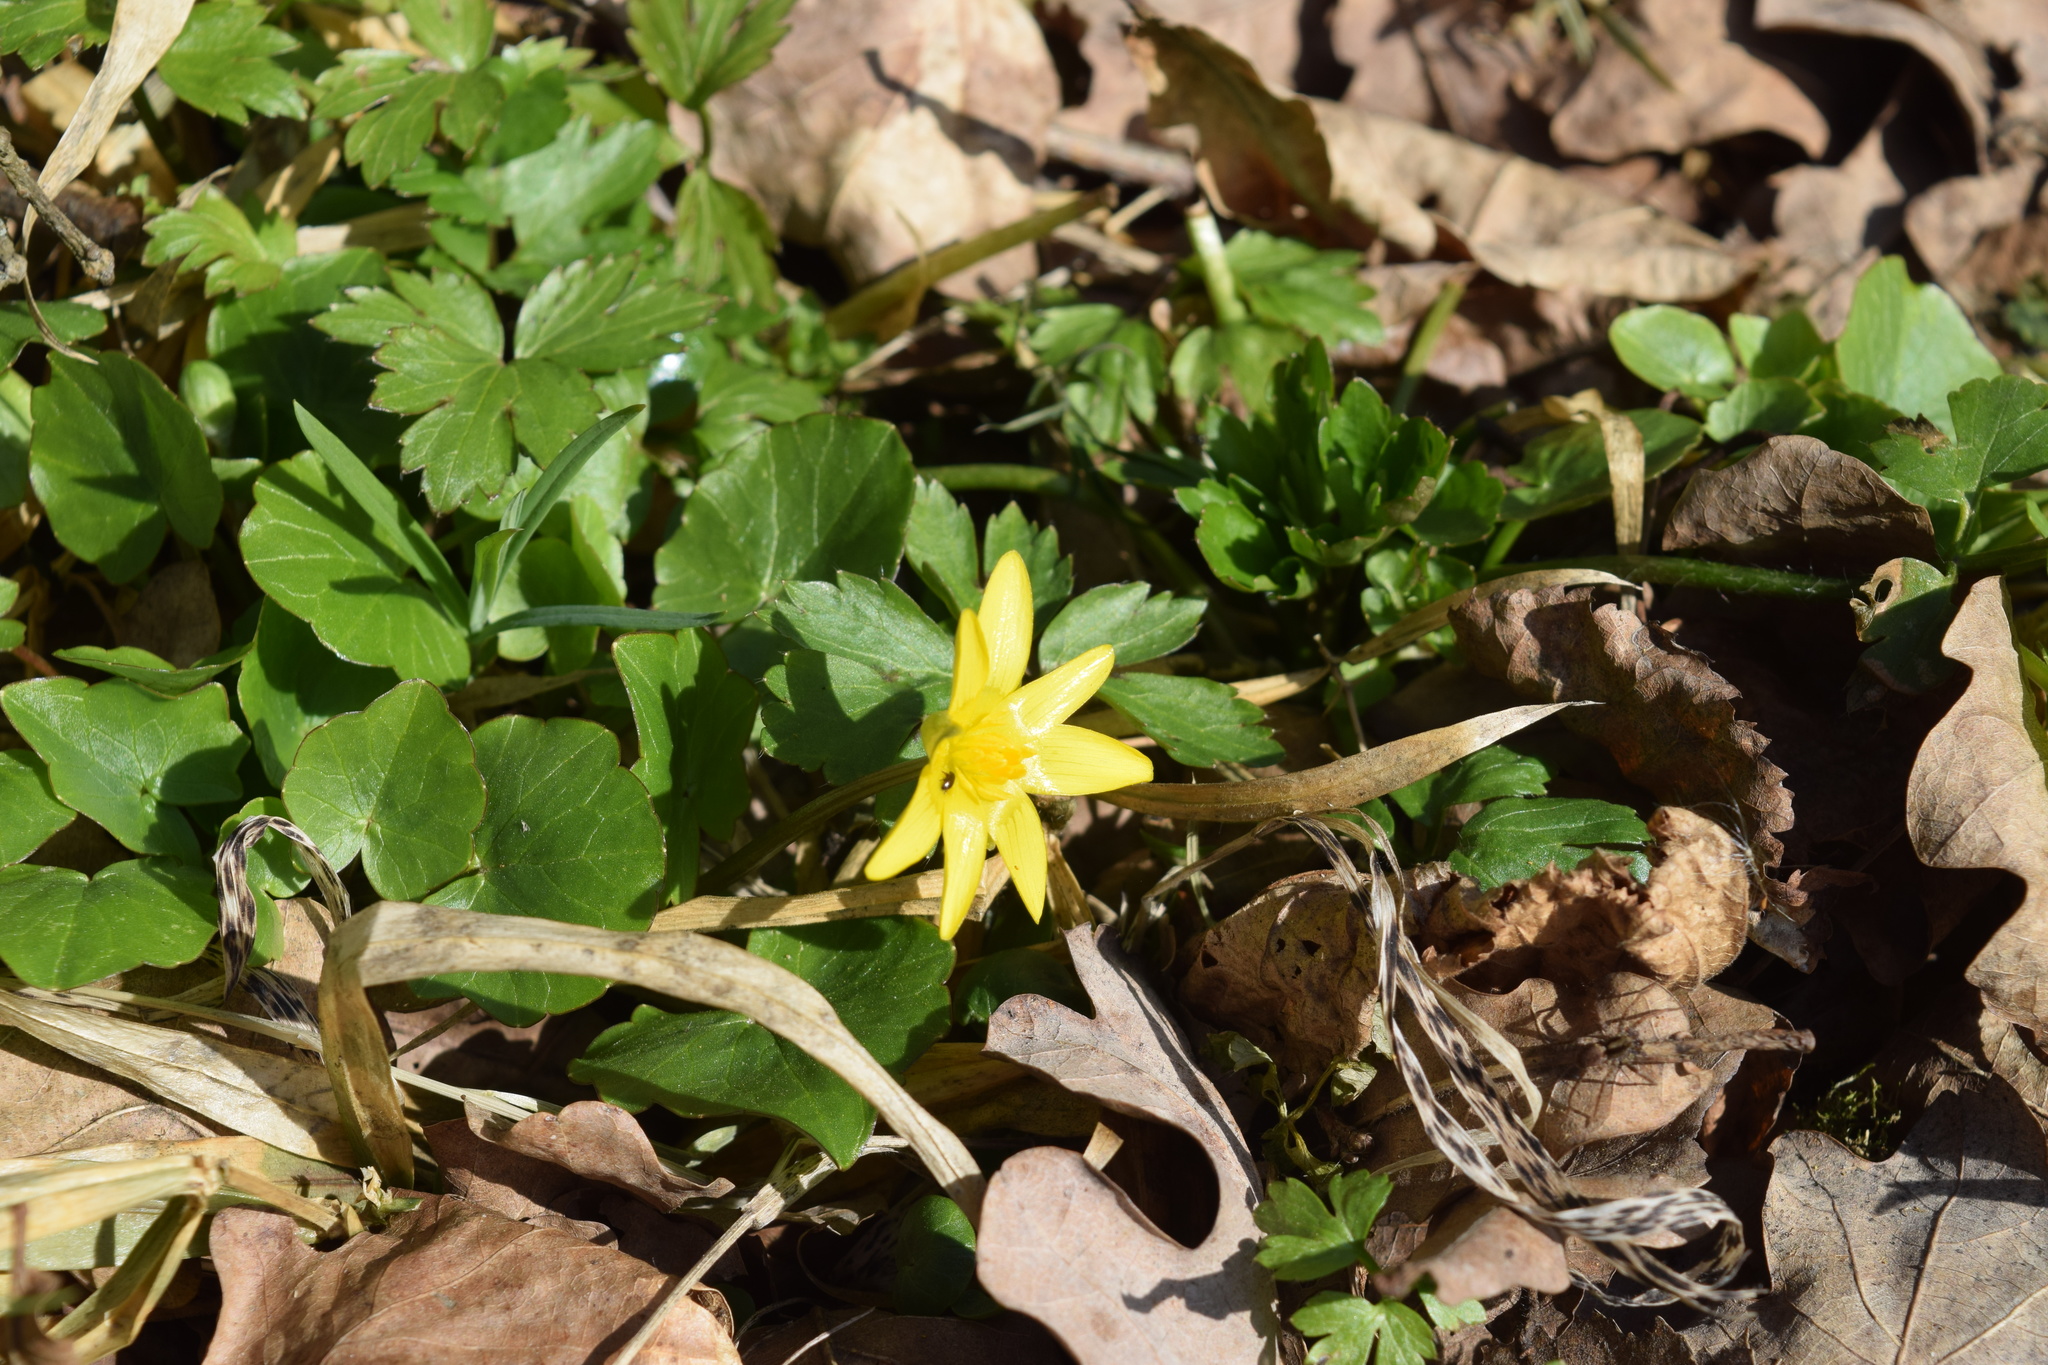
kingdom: Plantae
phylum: Tracheophyta
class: Magnoliopsida
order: Ranunculales
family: Ranunculaceae
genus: Ficaria
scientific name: Ficaria verna
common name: Lesser celandine
